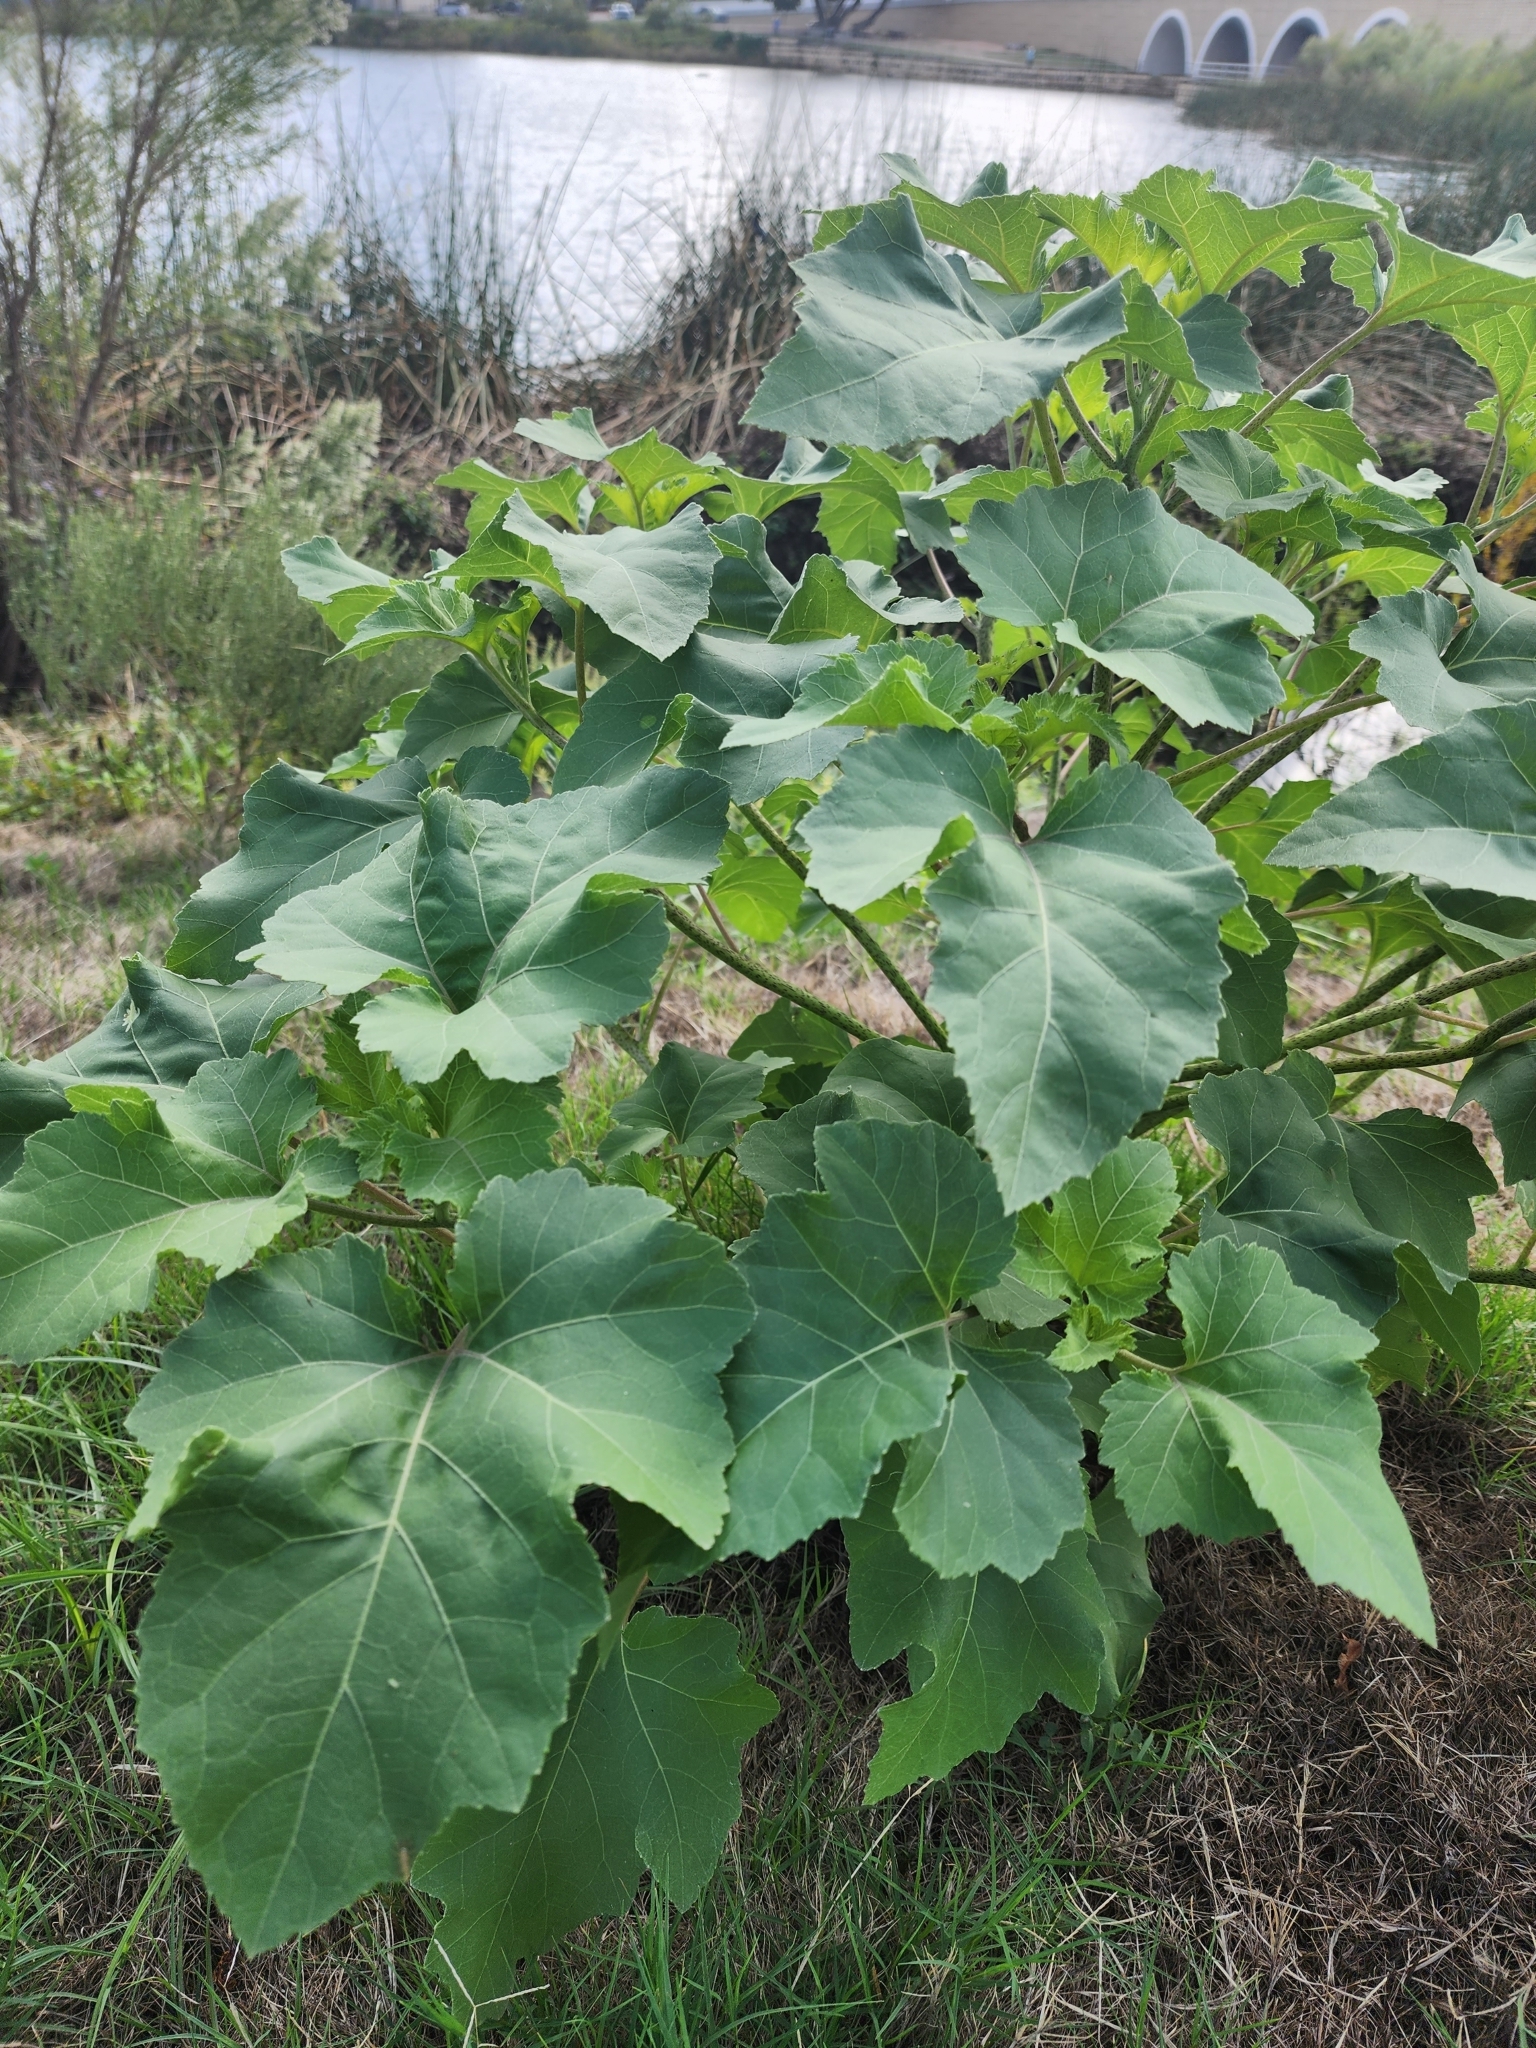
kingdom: Plantae
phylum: Tracheophyta
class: Magnoliopsida
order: Asterales
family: Asteraceae
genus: Xanthium
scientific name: Xanthium strumarium
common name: Rough cocklebur
